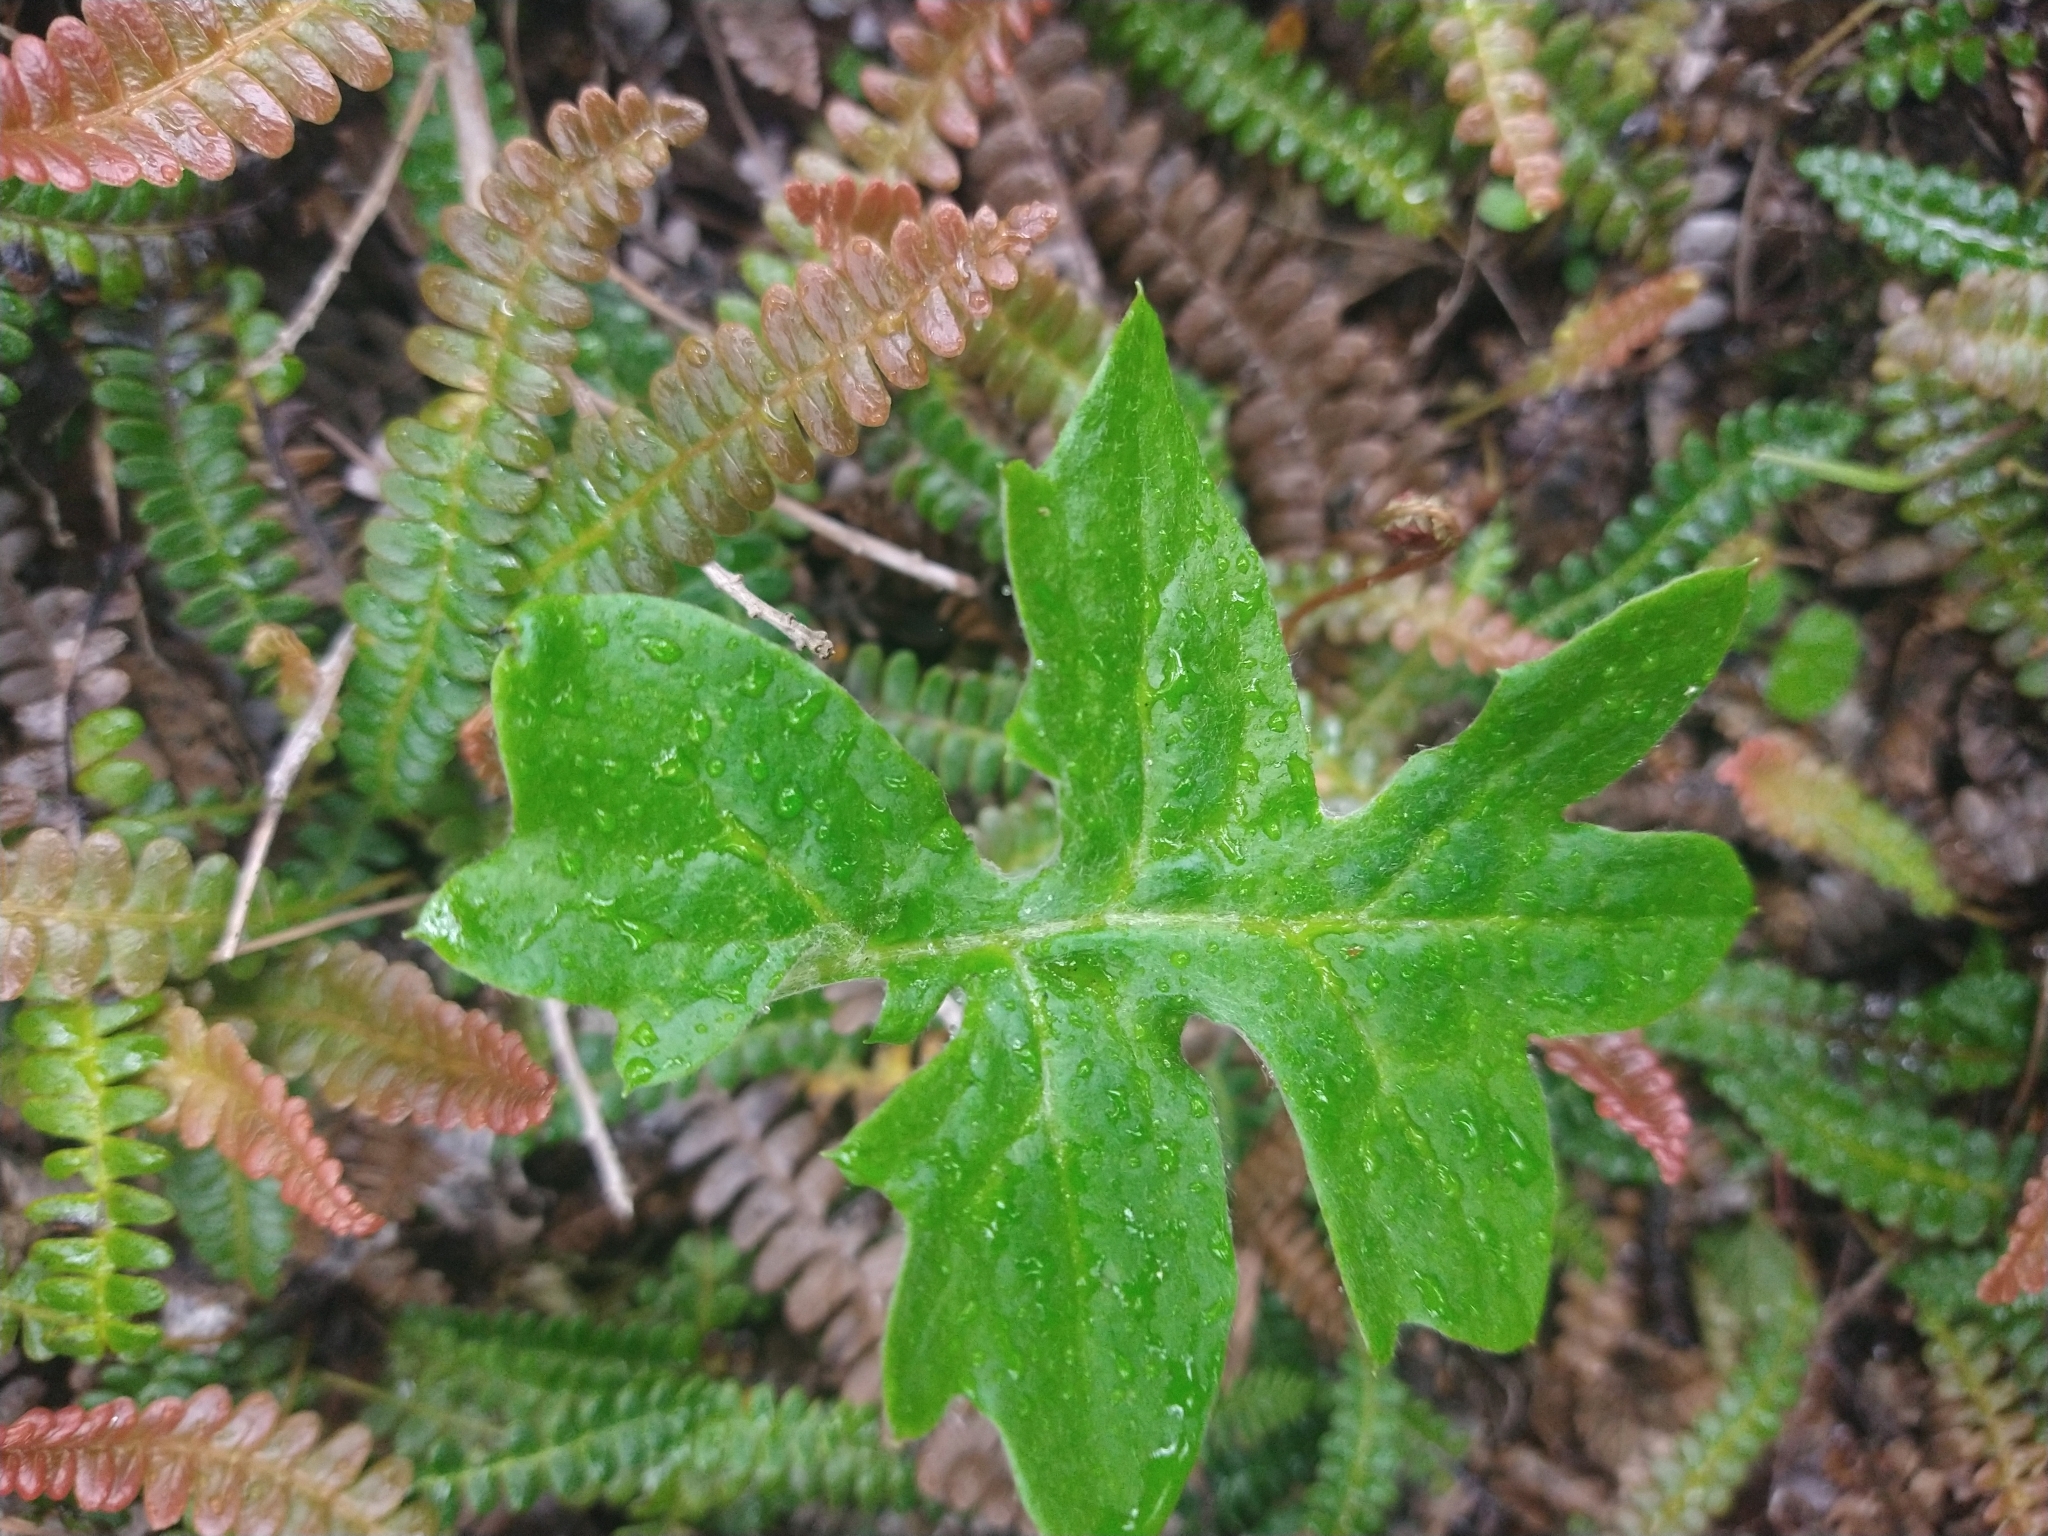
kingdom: Plantae
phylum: Tracheophyta
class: Magnoliopsida
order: Asterales
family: Asteraceae
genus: Macrachaenium
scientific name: Macrachaenium gracile
